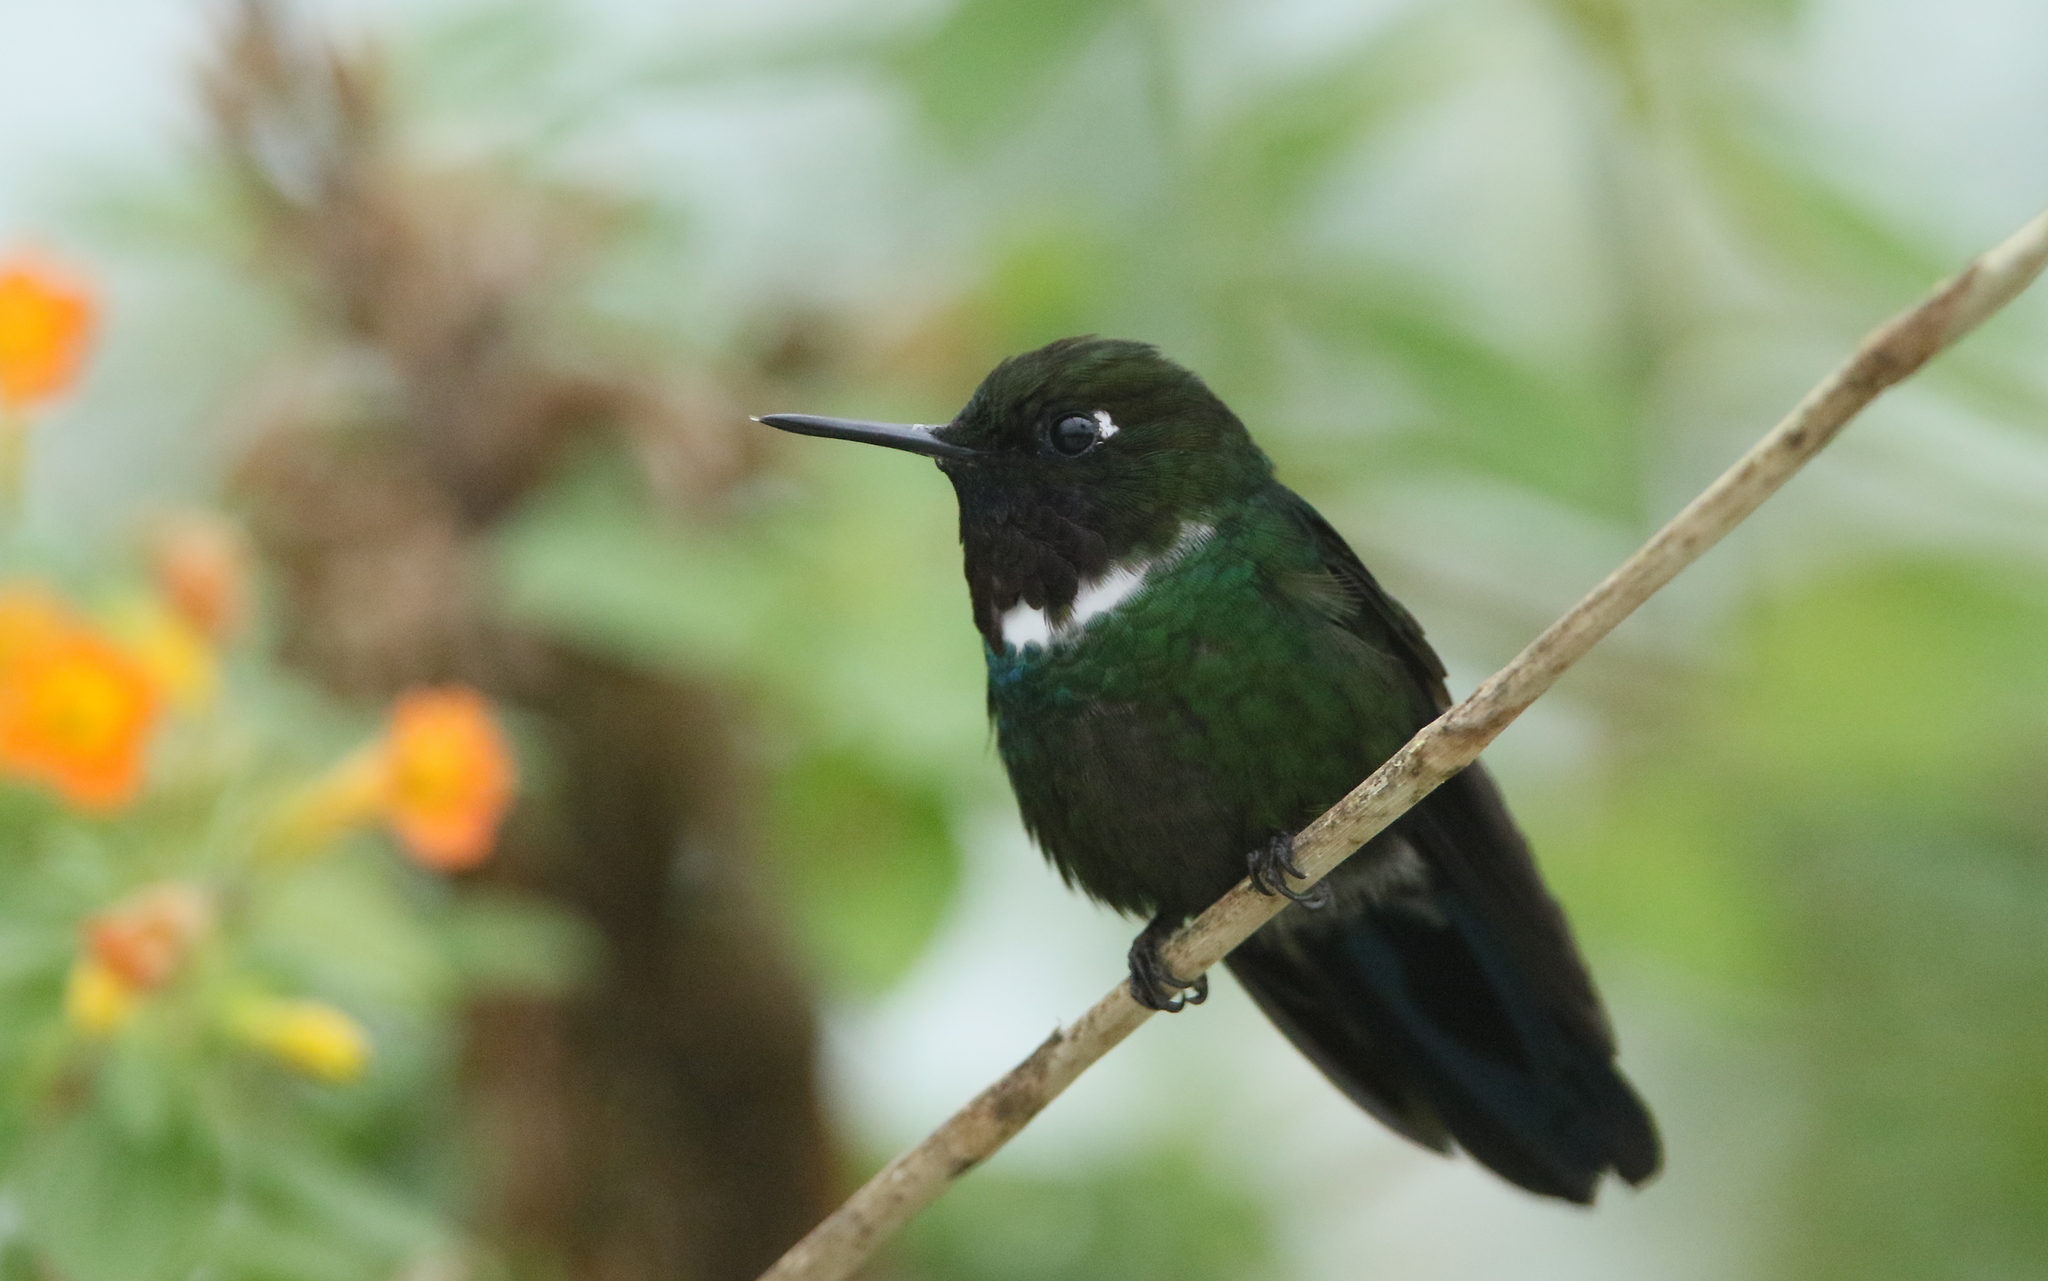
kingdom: Animalia
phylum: Chordata
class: Aves
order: Apodiformes
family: Trochilidae
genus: Heliangelus
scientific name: Heliangelus strophianus
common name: Gorgeted sunangel
